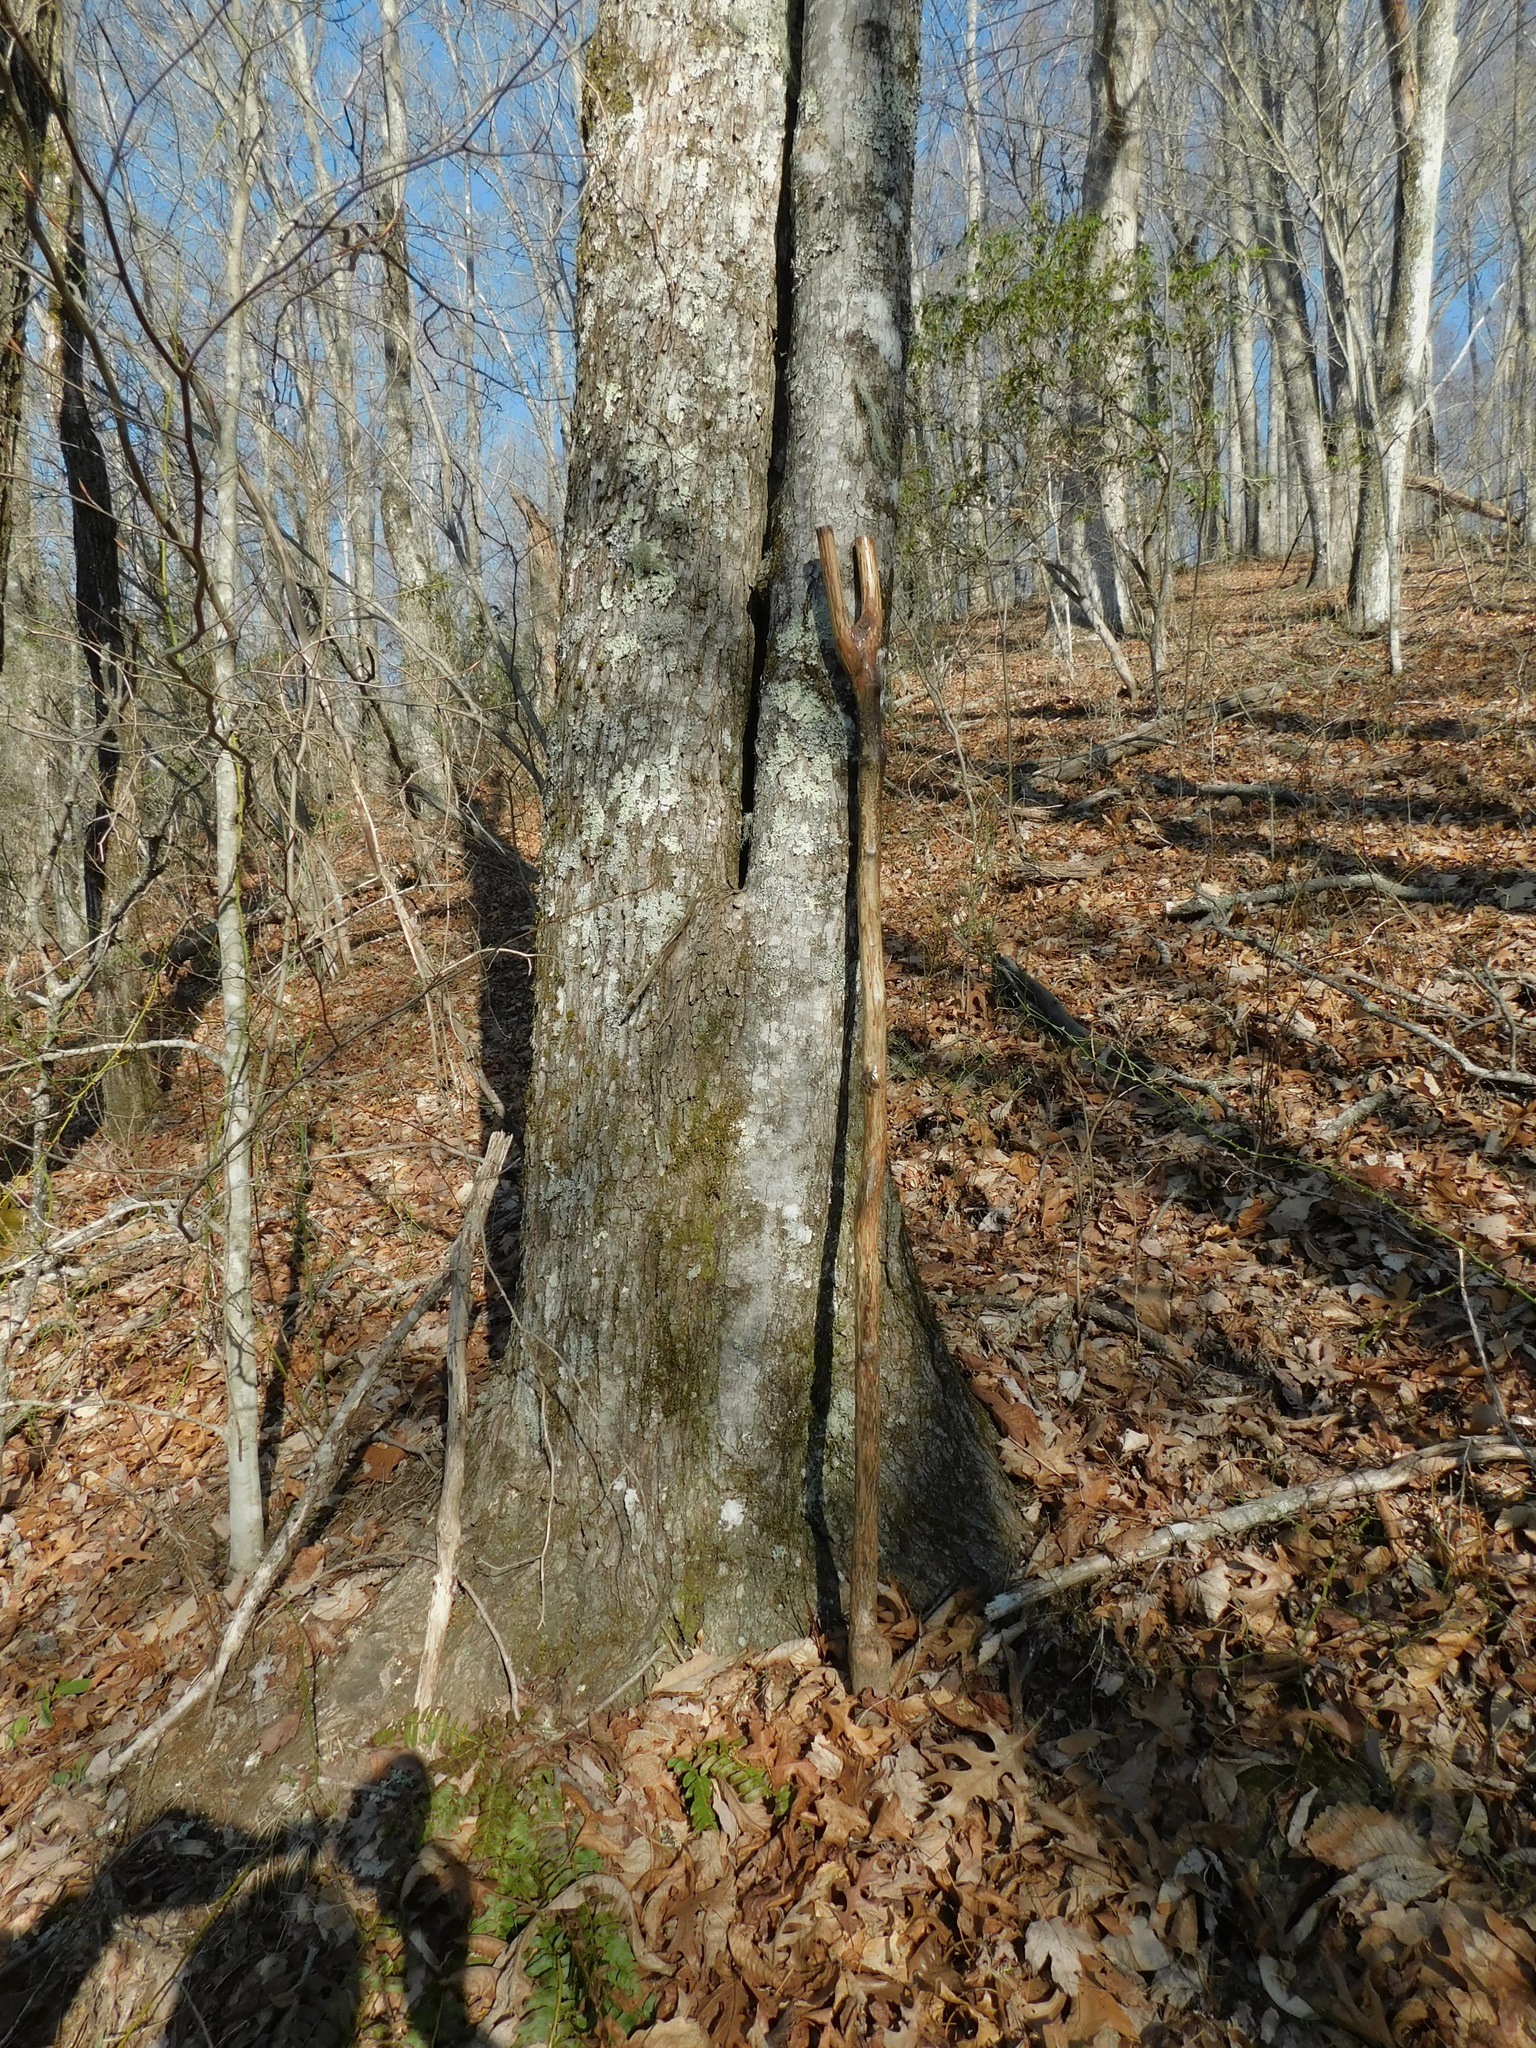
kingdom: Plantae
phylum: Tracheophyta
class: Magnoliopsida
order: Sapindales
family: Sapindaceae
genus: Acer
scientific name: Acer rubrum
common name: Red maple
